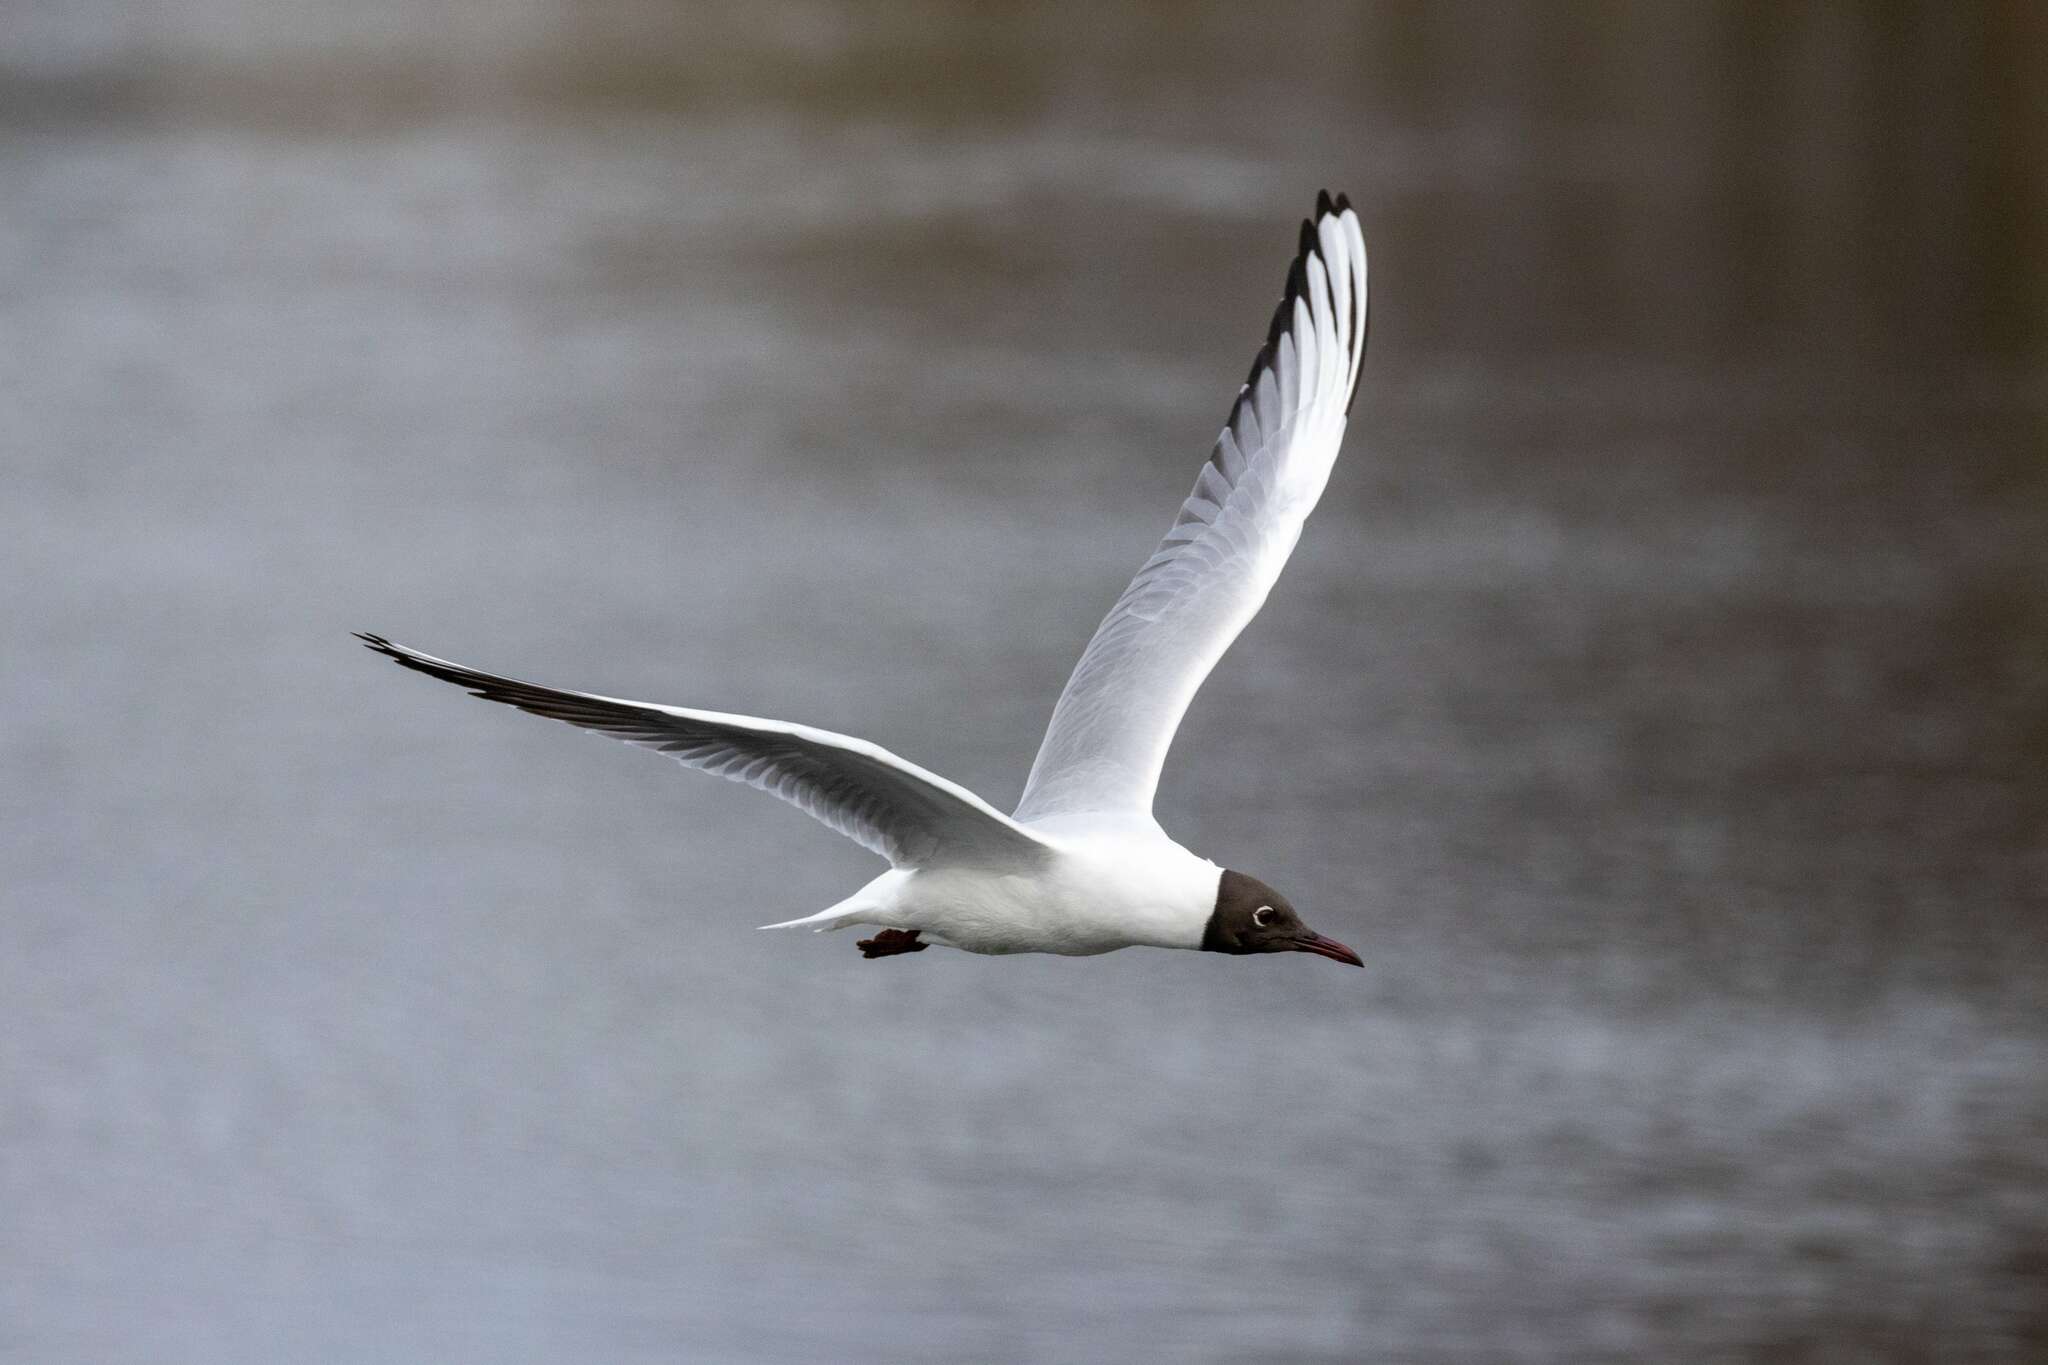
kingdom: Animalia
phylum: Chordata
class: Aves
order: Charadriiformes
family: Laridae
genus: Chroicocephalus
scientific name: Chroicocephalus ridibundus
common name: Black-headed gull
